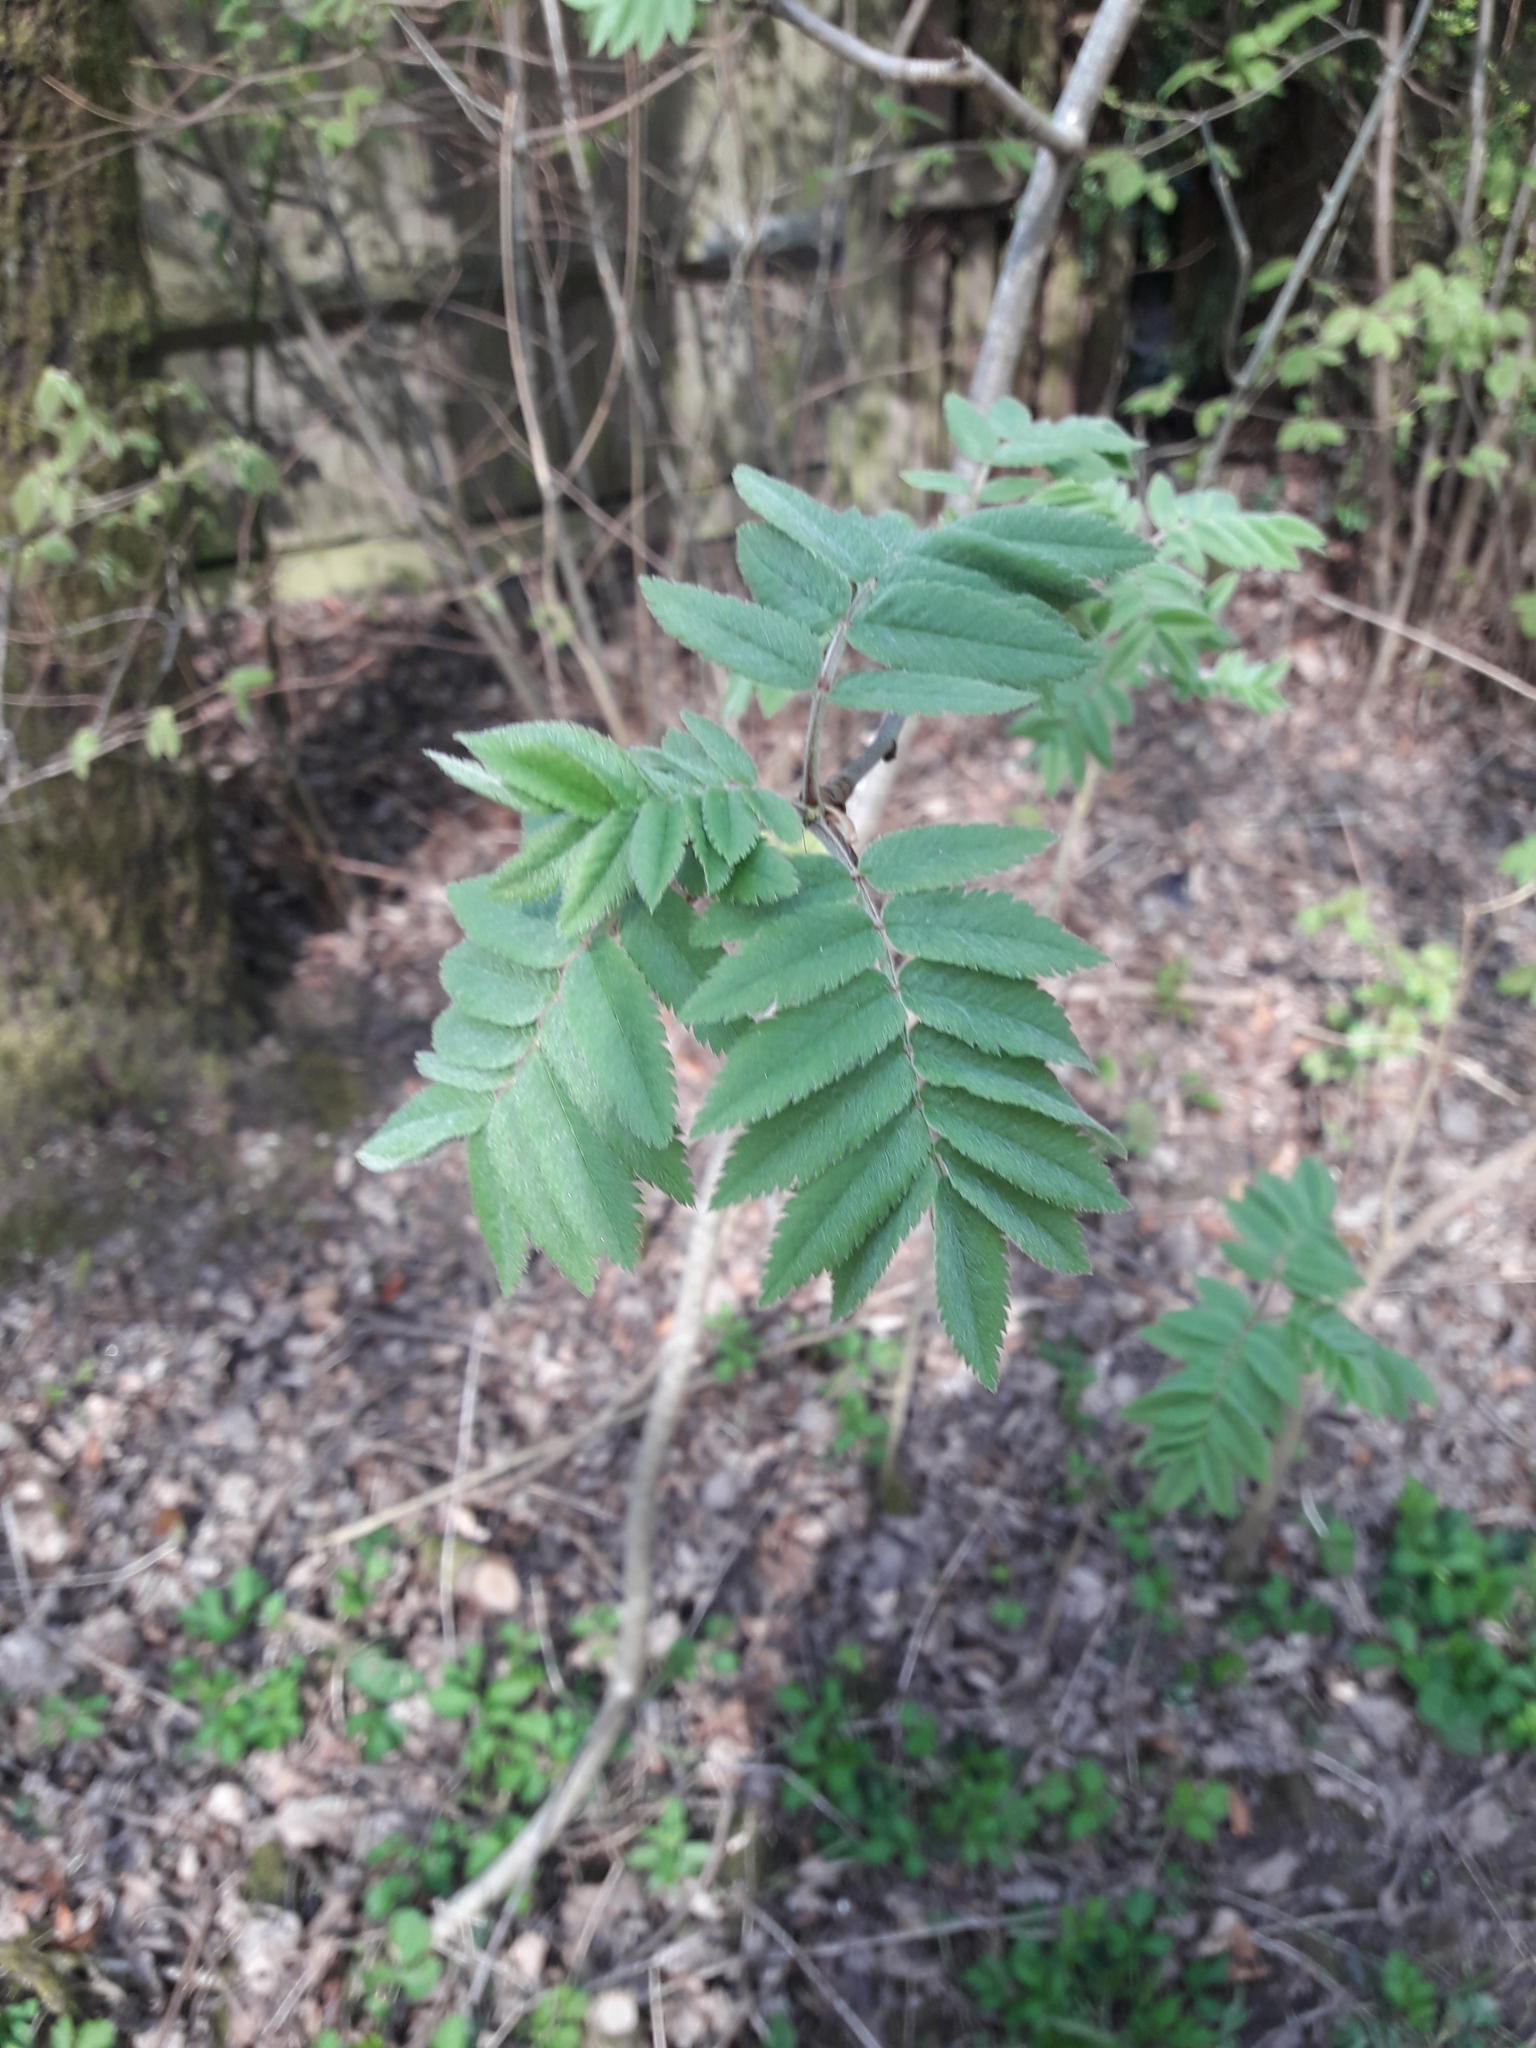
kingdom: Plantae
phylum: Tracheophyta
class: Magnoliopsida
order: Rosales
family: Rosaceae
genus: Sorbus
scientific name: Sorbus aucuparia
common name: Rowan
